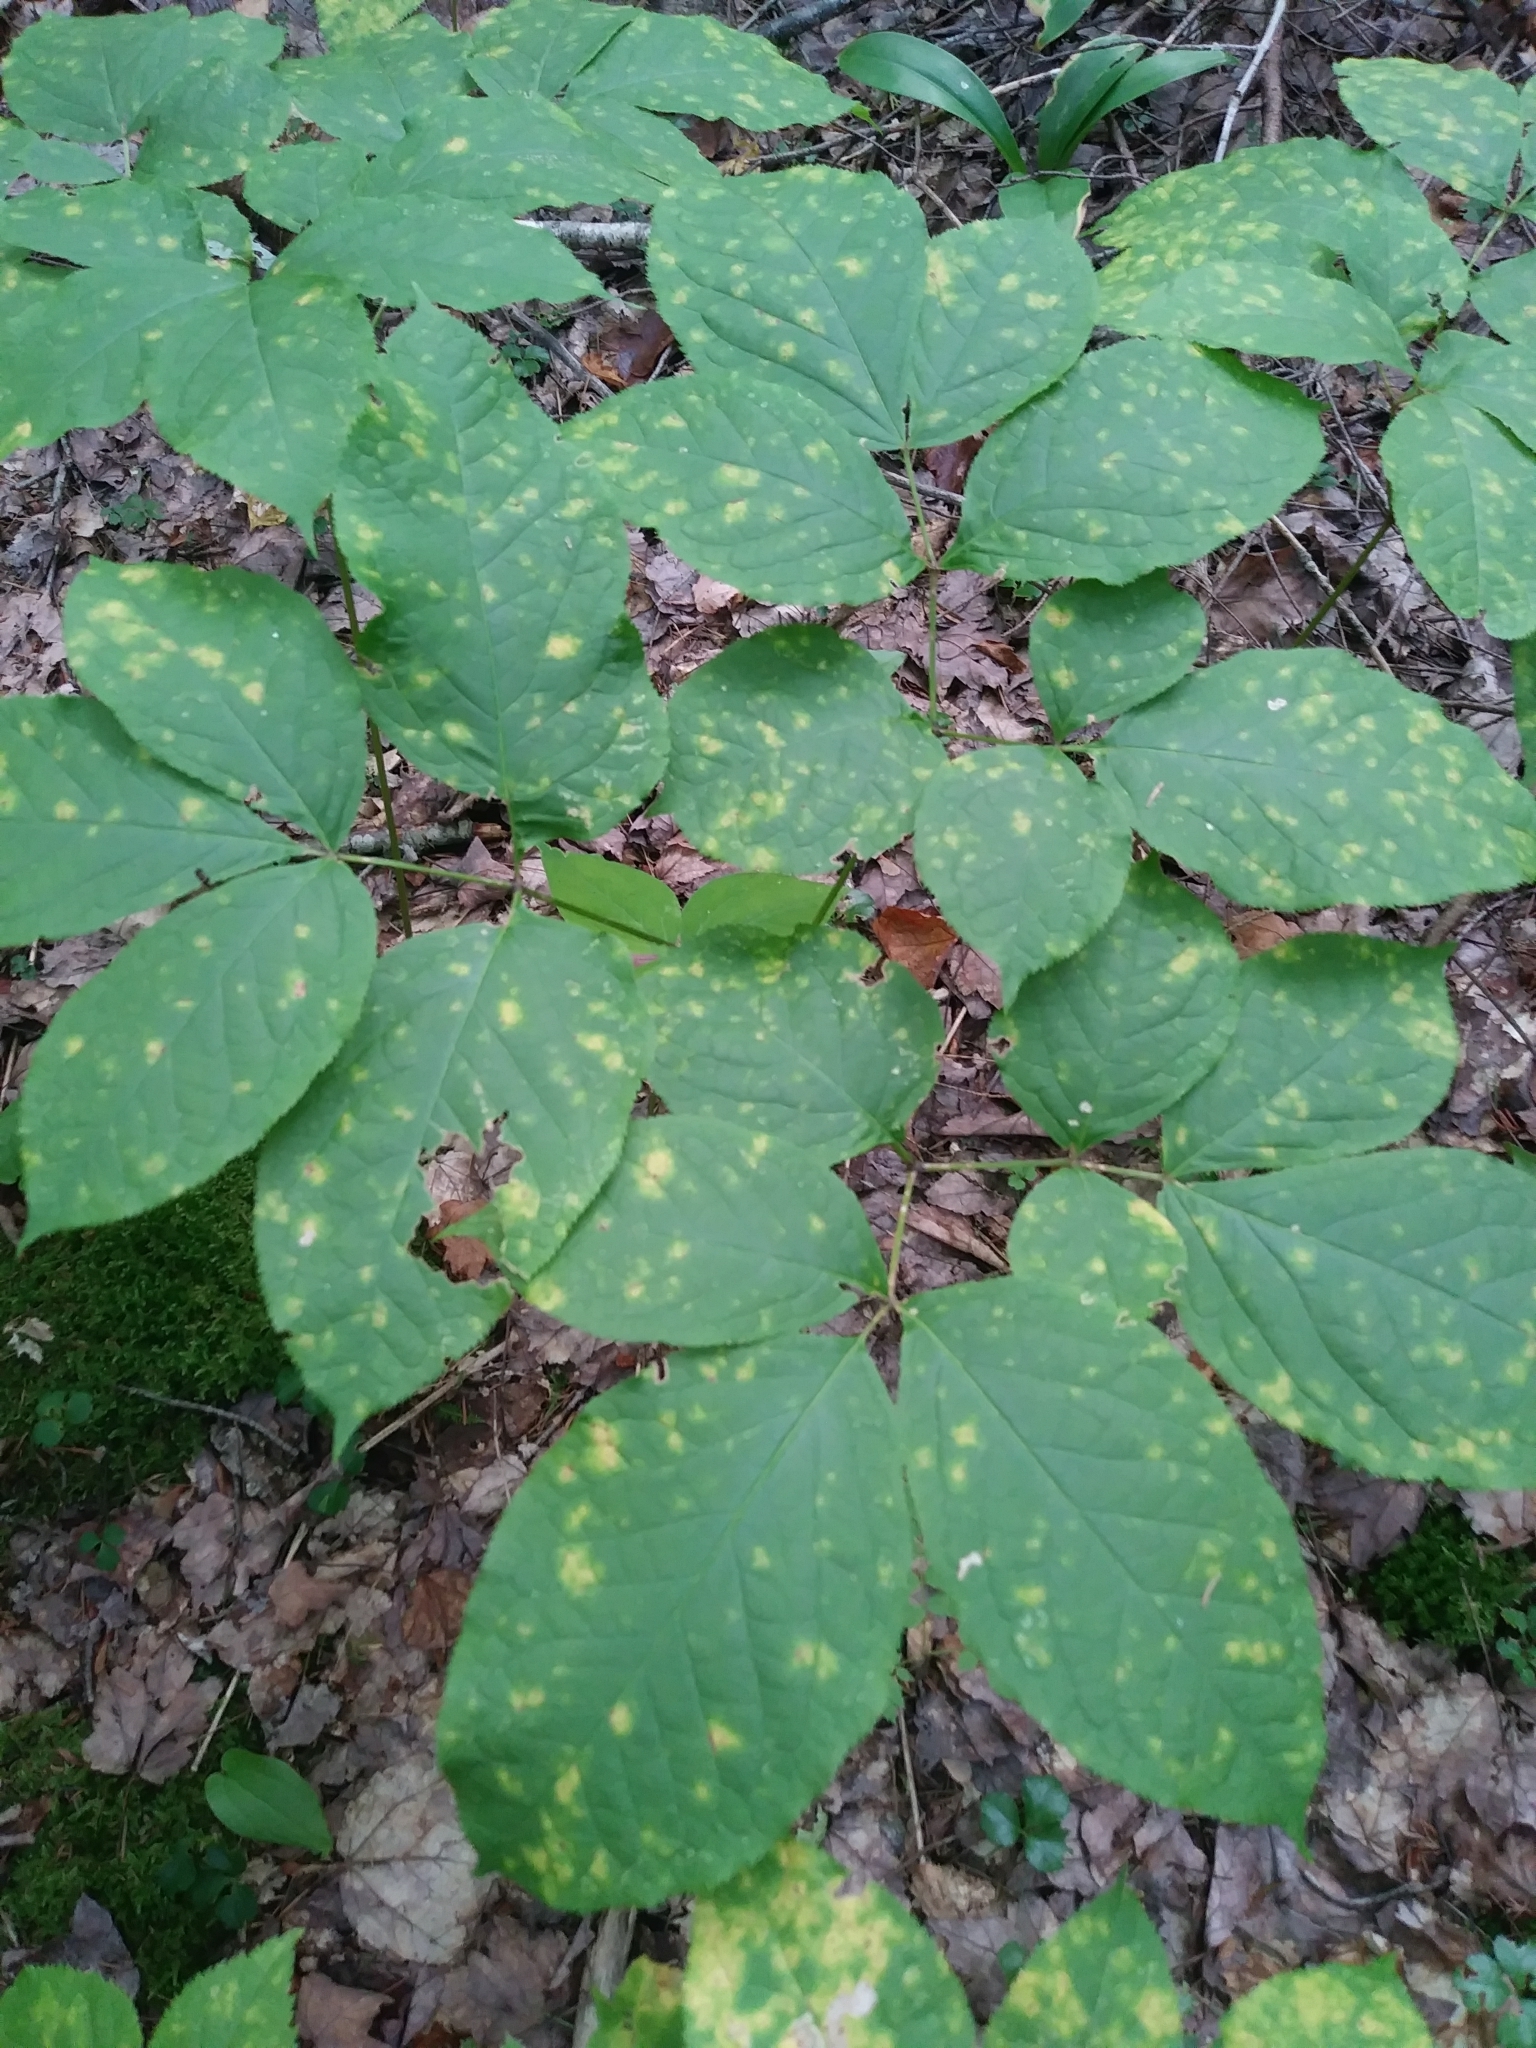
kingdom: Plantae
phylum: Tracheophyta
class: Magnoliopsida
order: Apiales
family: Araliaceae
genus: Aralia
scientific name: Aralia nudicaulis
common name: Wild sarsaparilla
